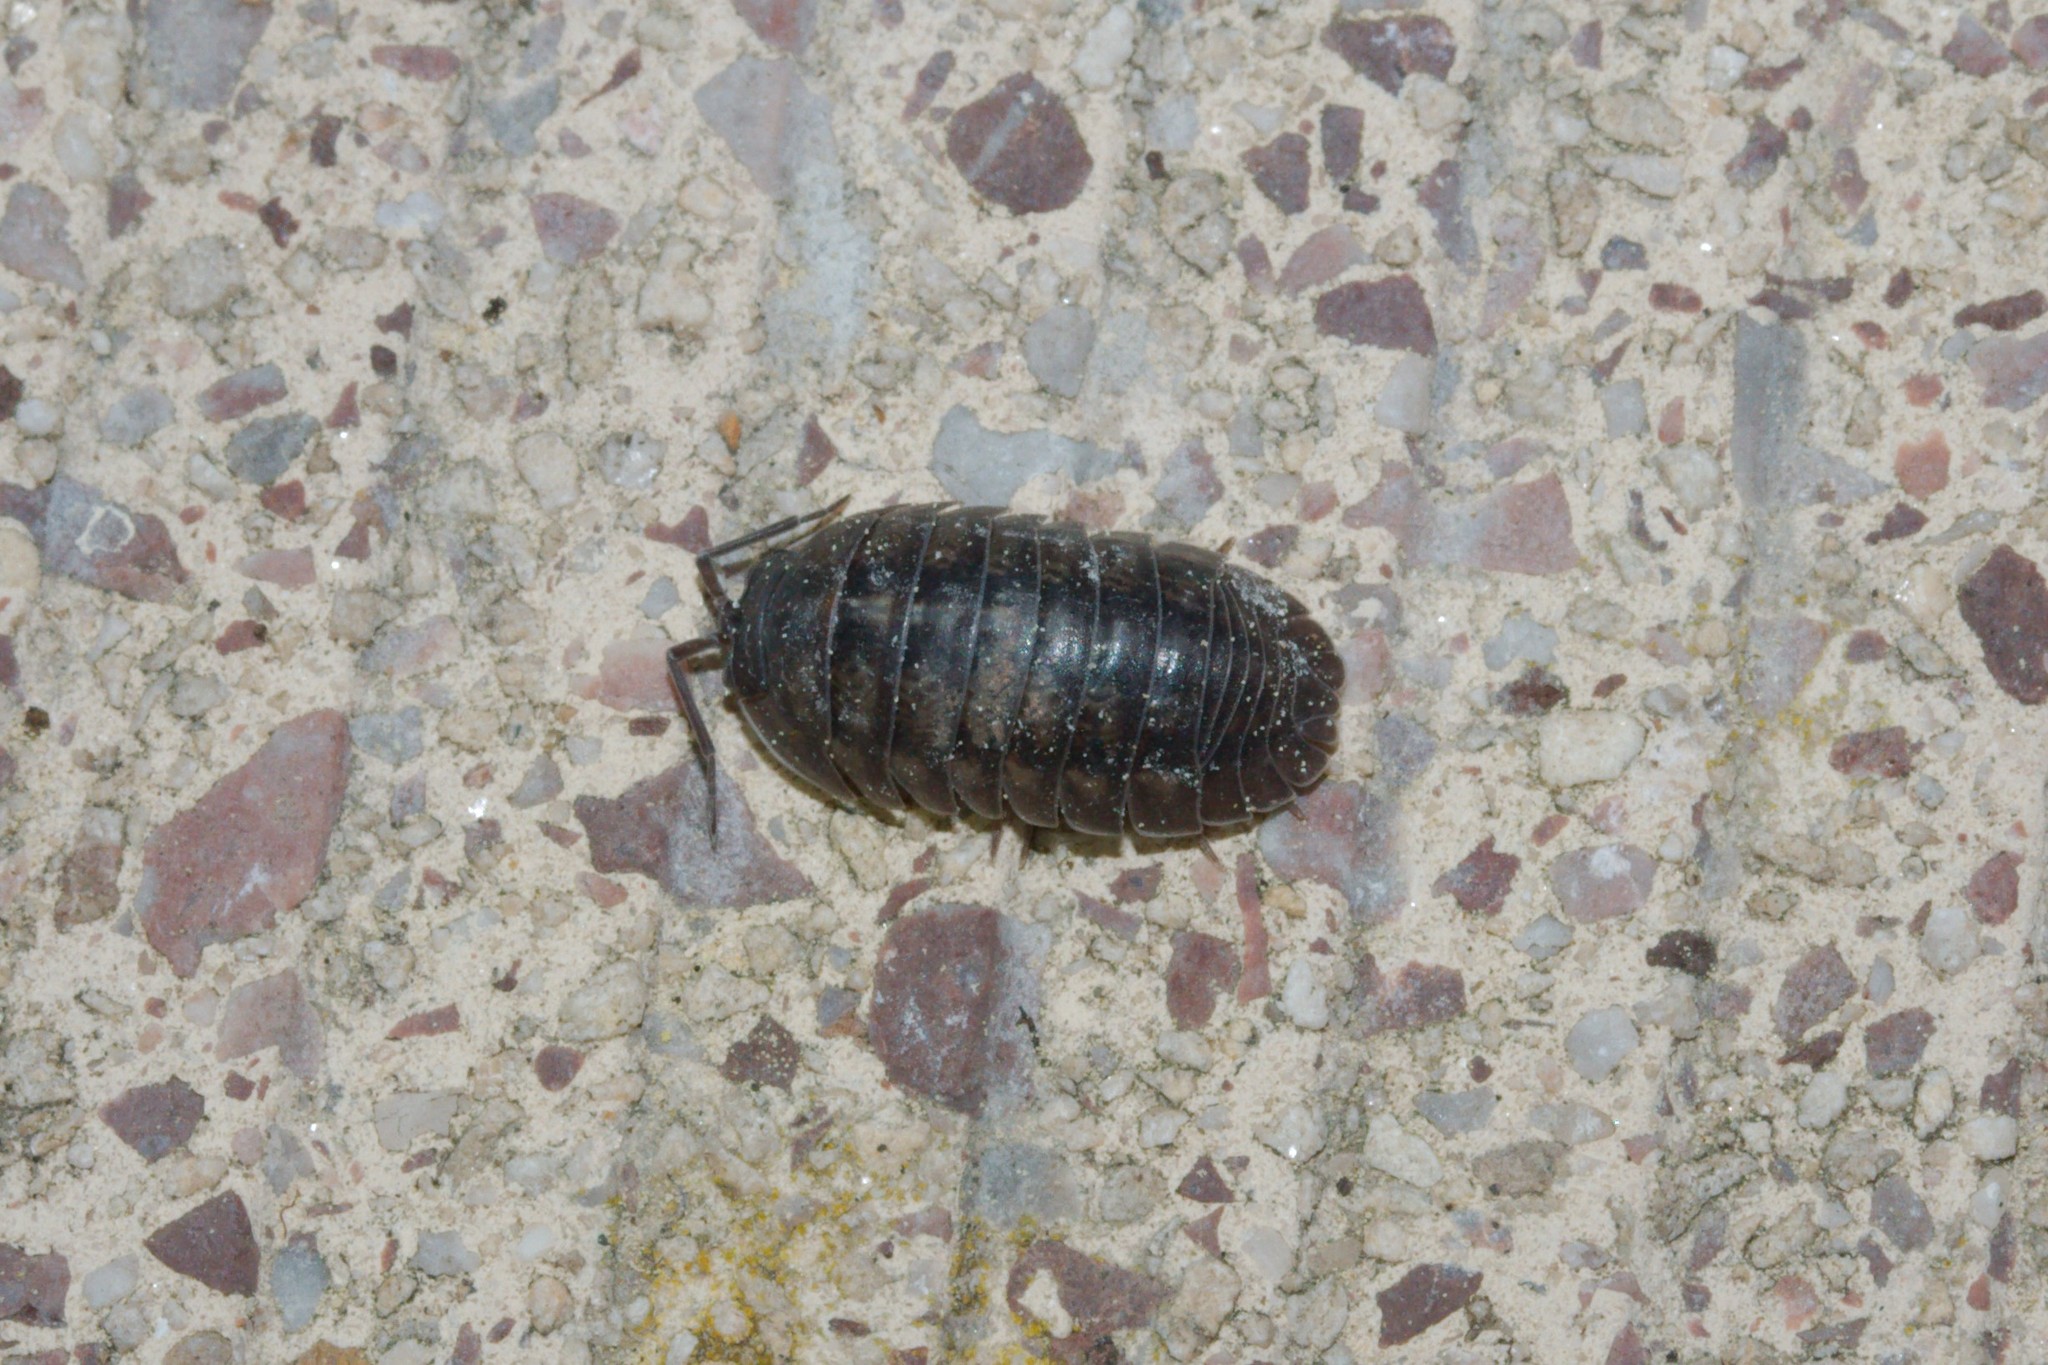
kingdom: Animalia
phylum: Arthropoda
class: Malacostraca
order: Isopoda
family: Armadillidiidae
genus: Armadillidium
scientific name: Armadillidium nasatum
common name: Isopod
